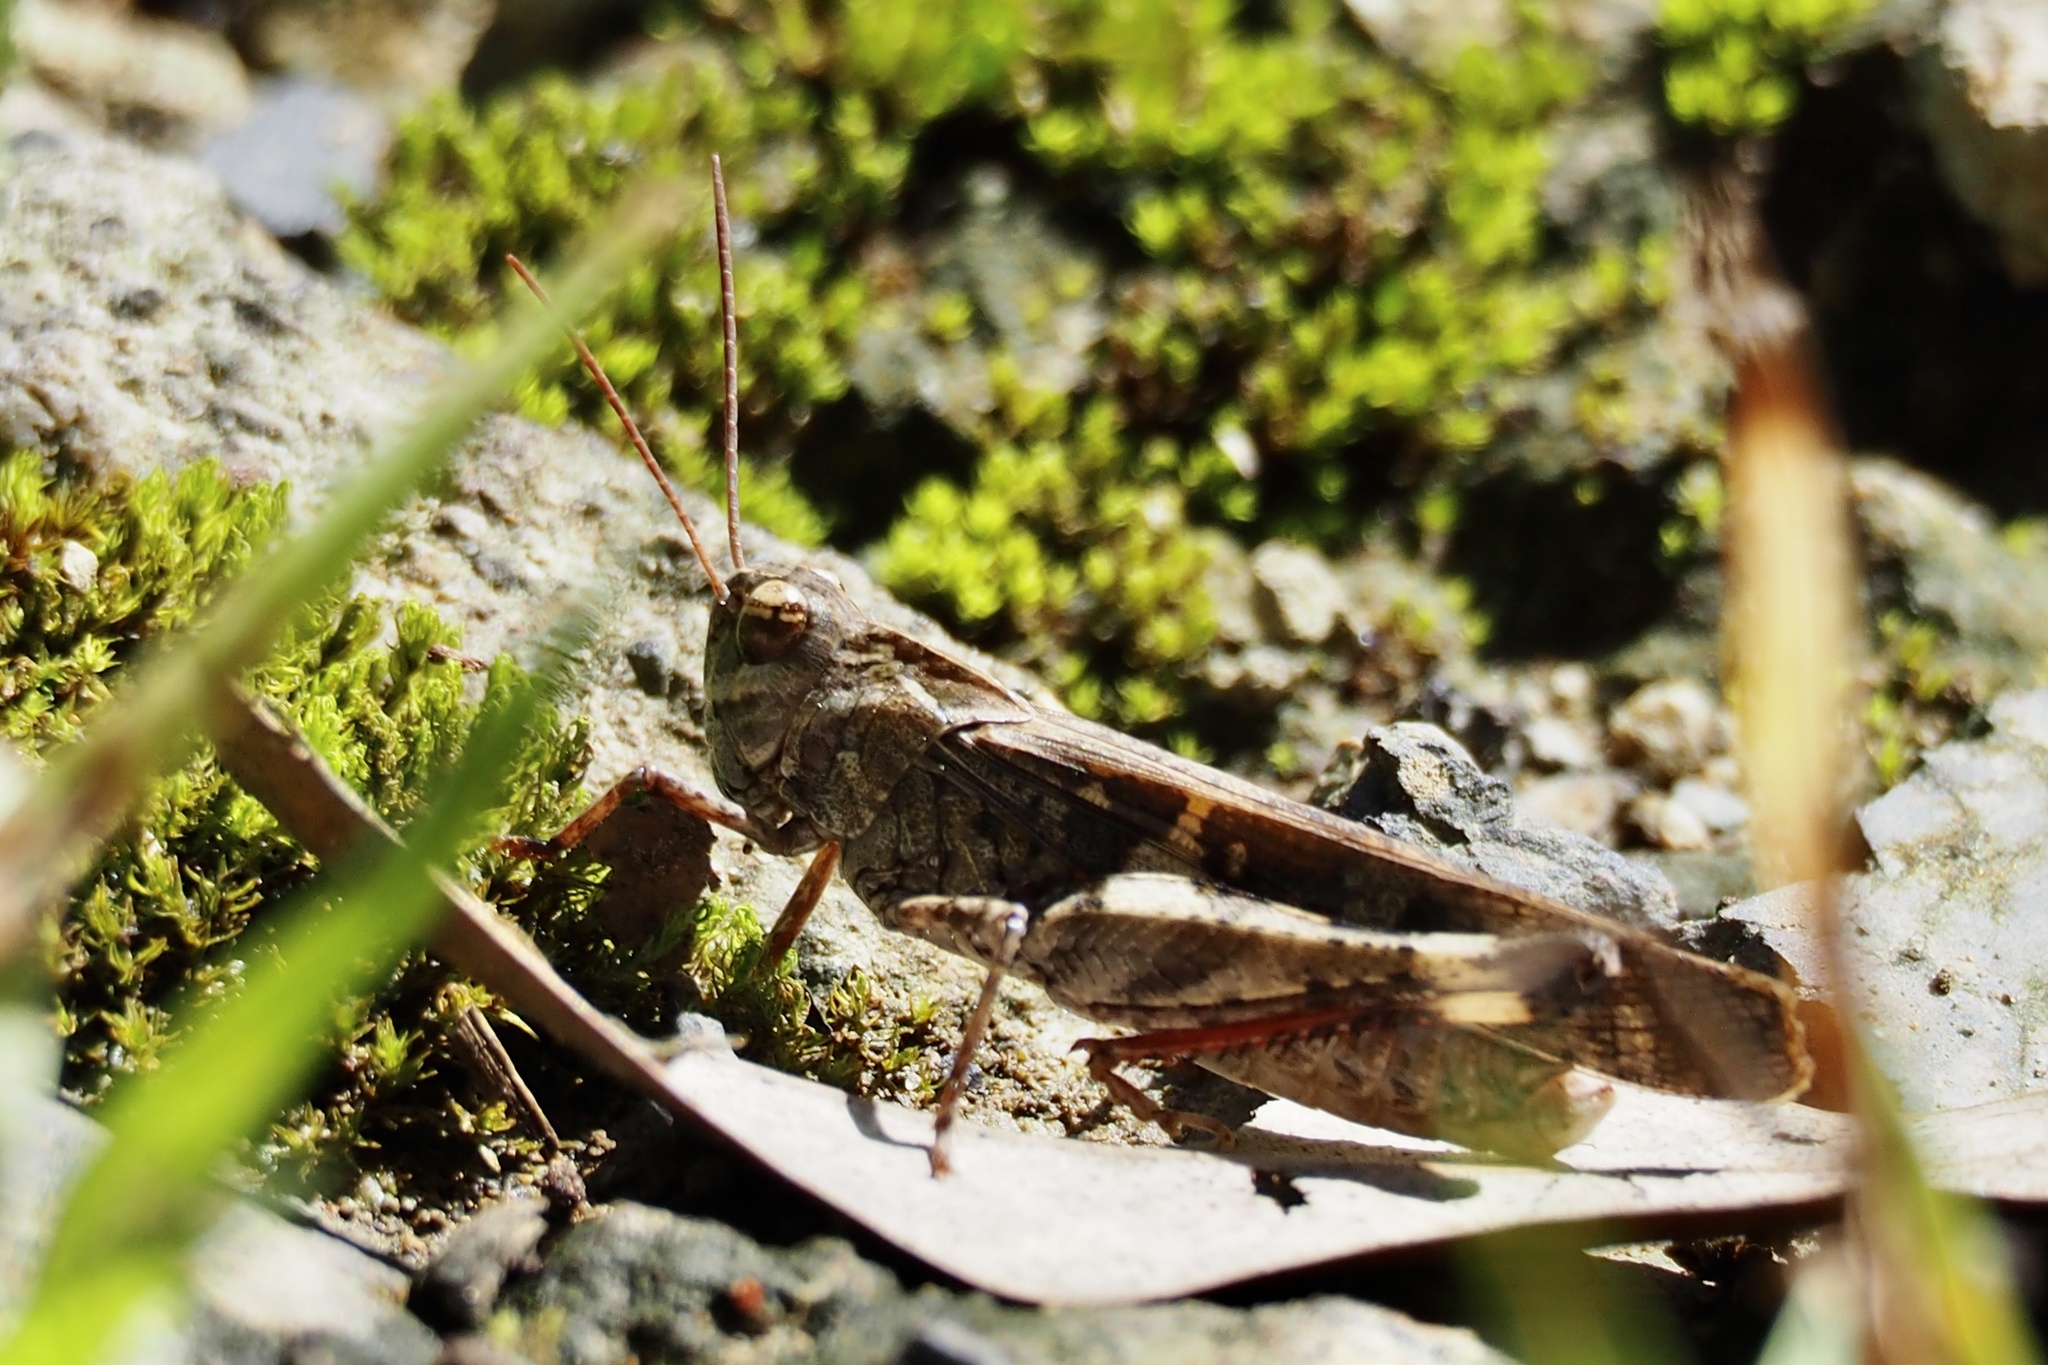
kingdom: Animalia
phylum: Arthropoda
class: Insecta
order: Orthoptera
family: Acrididae
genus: Oedaleus
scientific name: Oedaleus infernalis
